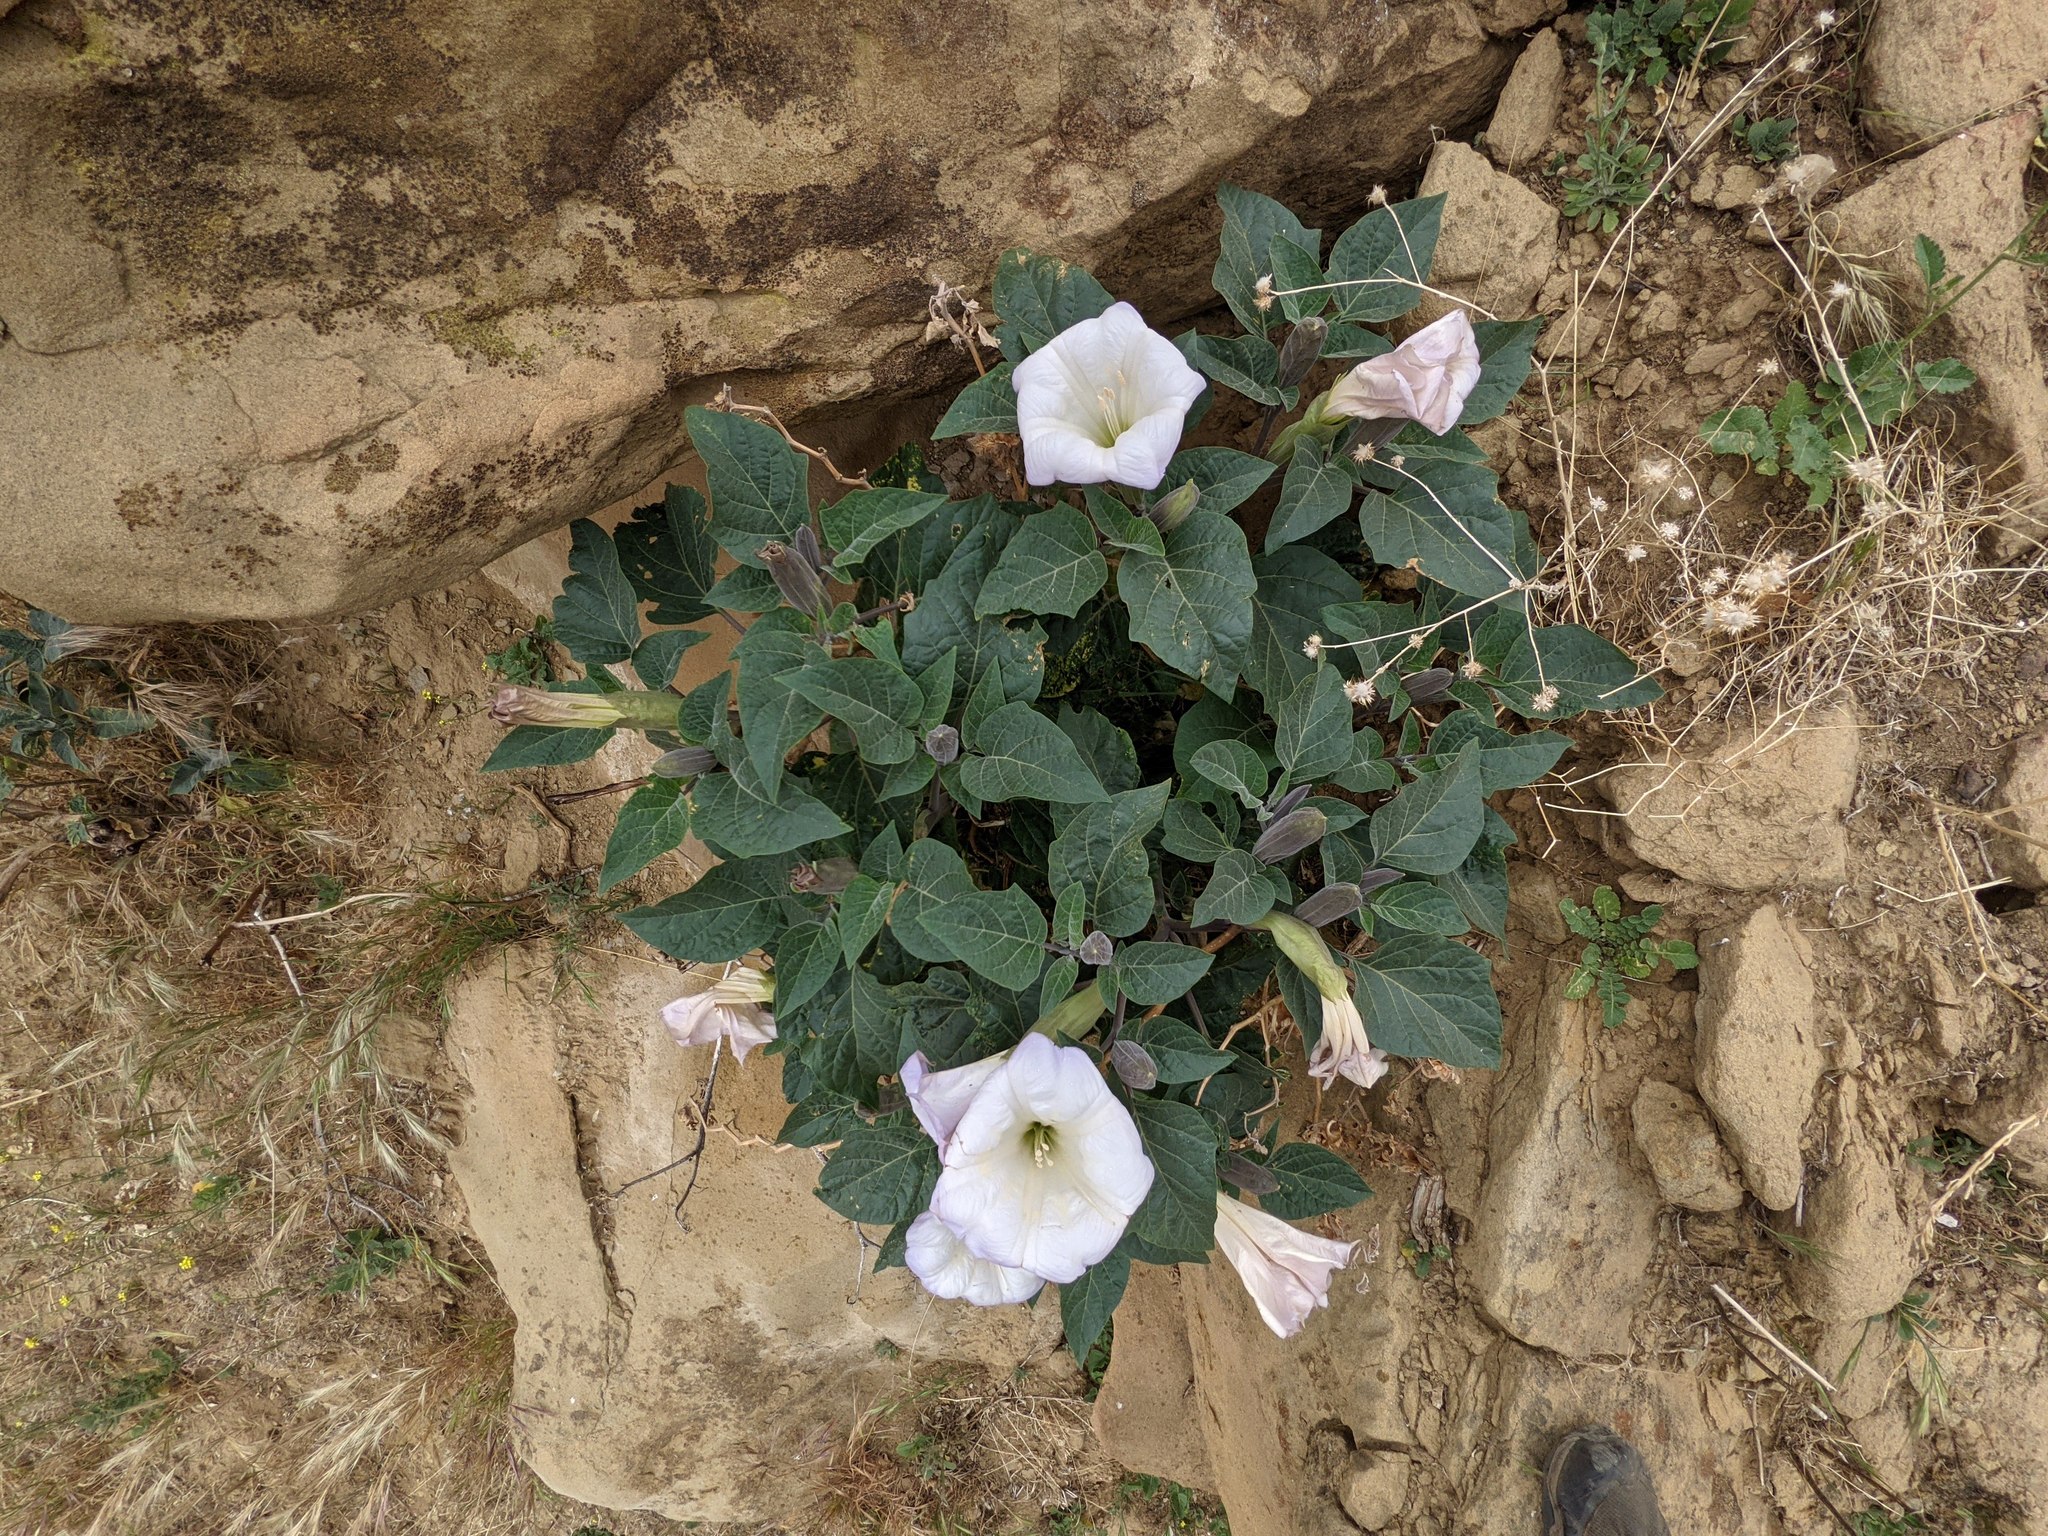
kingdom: Plantae
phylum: Tracheophyta
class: Magnoliopsida
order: Solanales
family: Solanaceae
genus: Datura
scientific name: Datura wrightii
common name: Sacred thorn-apple
